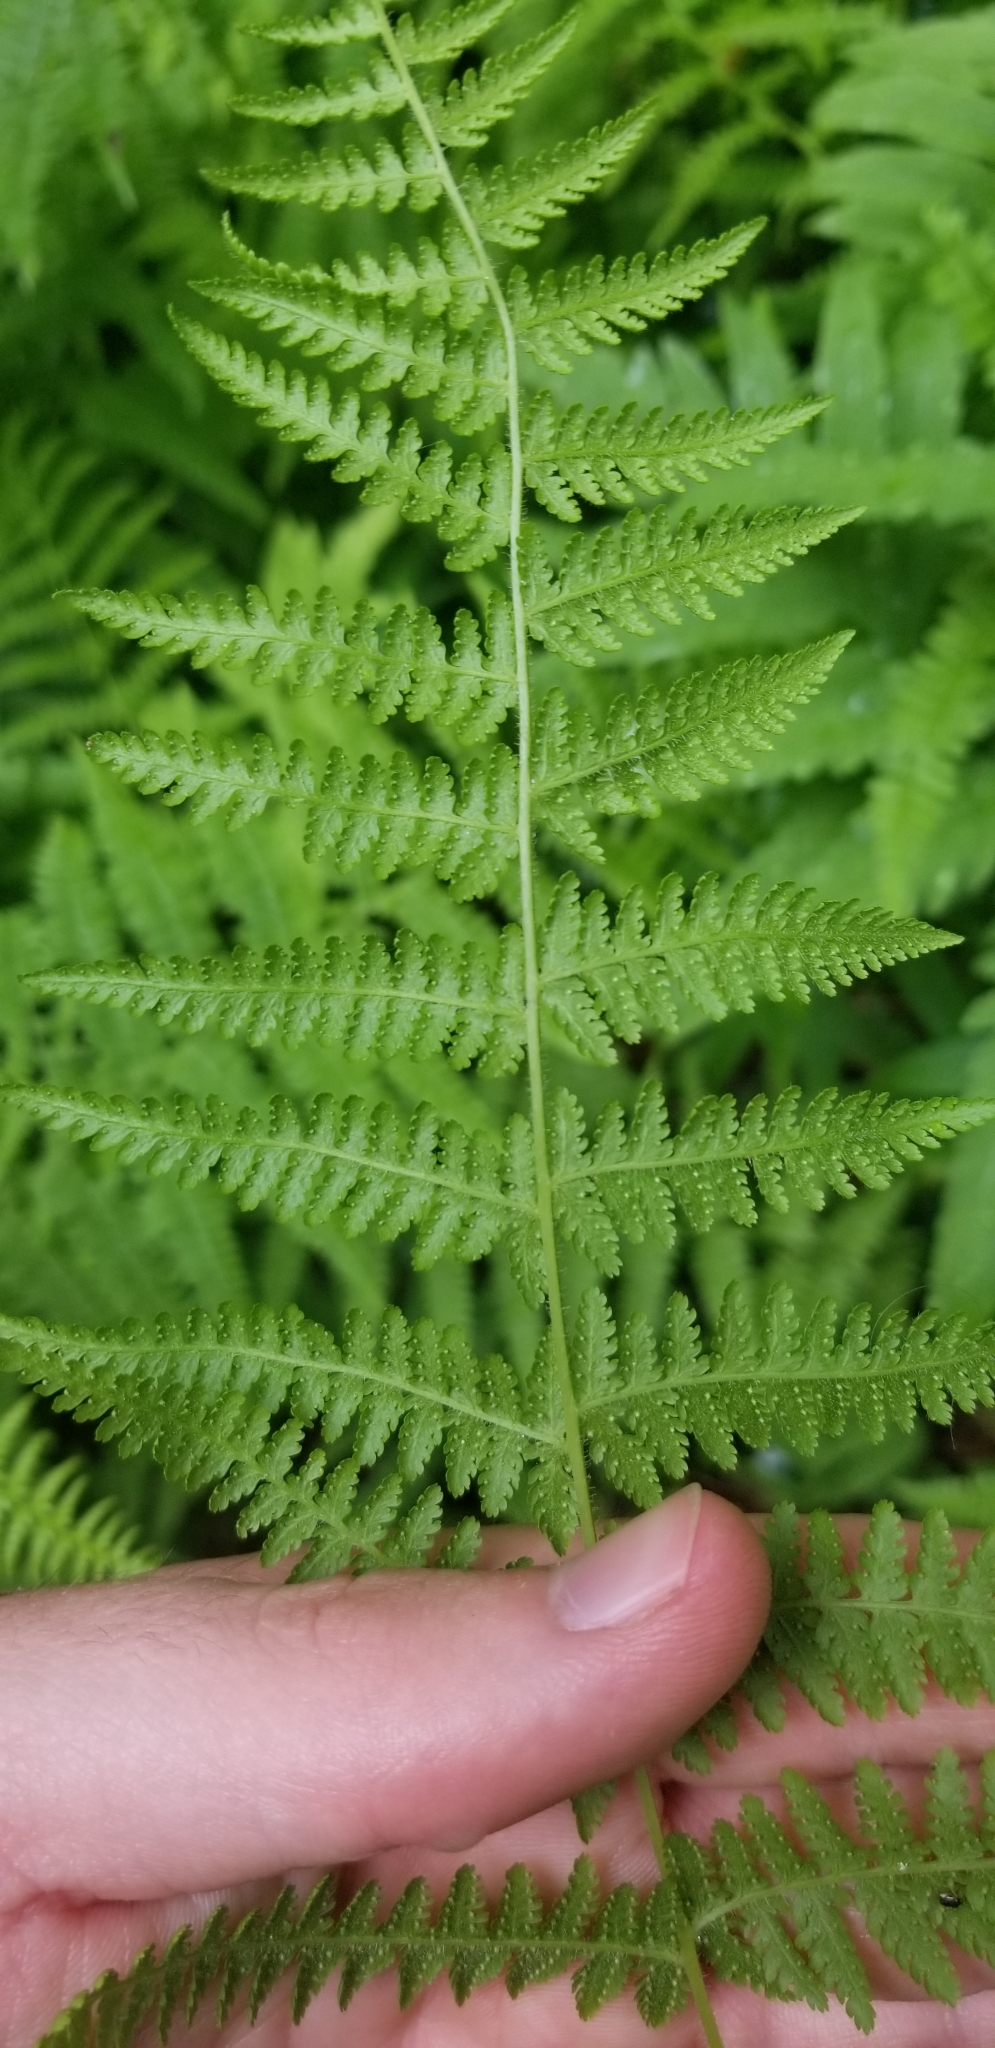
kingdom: Plantae
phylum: Tracheophyta
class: Polypodiopsida
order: Polypodiales
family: Dennstaedtiaceae
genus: Sitobolium
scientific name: Sitobolium punctilobum
